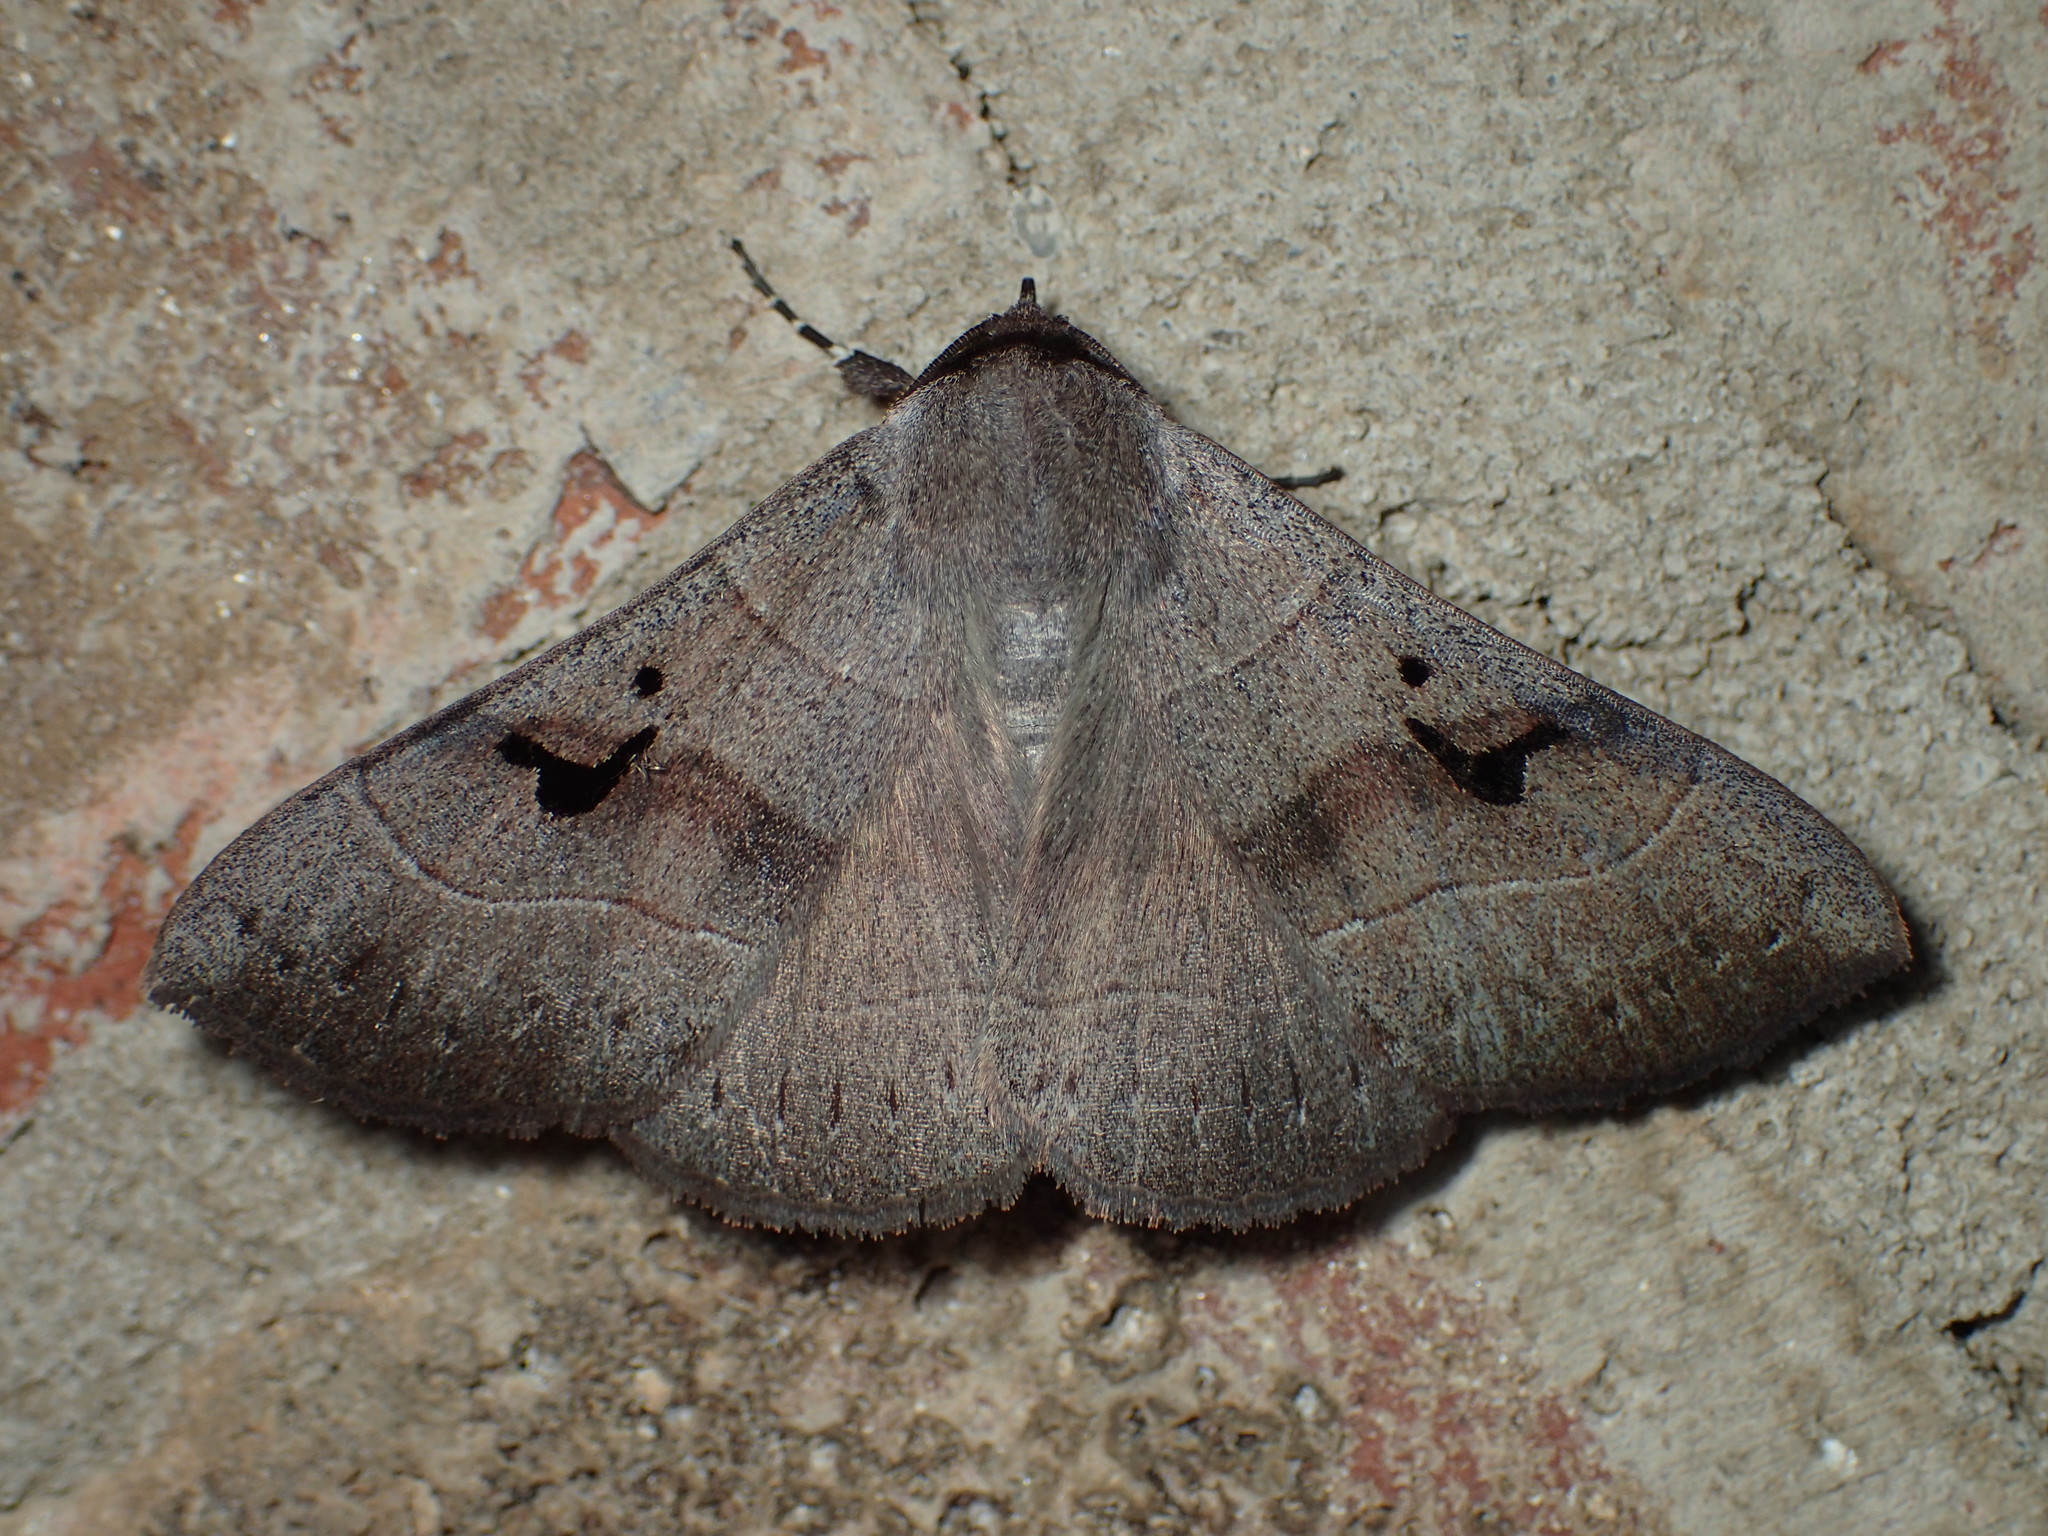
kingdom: Animalia
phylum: Arthropoda
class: Insecta
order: Lepidoptera
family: Erebidae
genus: Panopoda
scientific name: Panopoda carneicosta
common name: Brown panopoda moth
